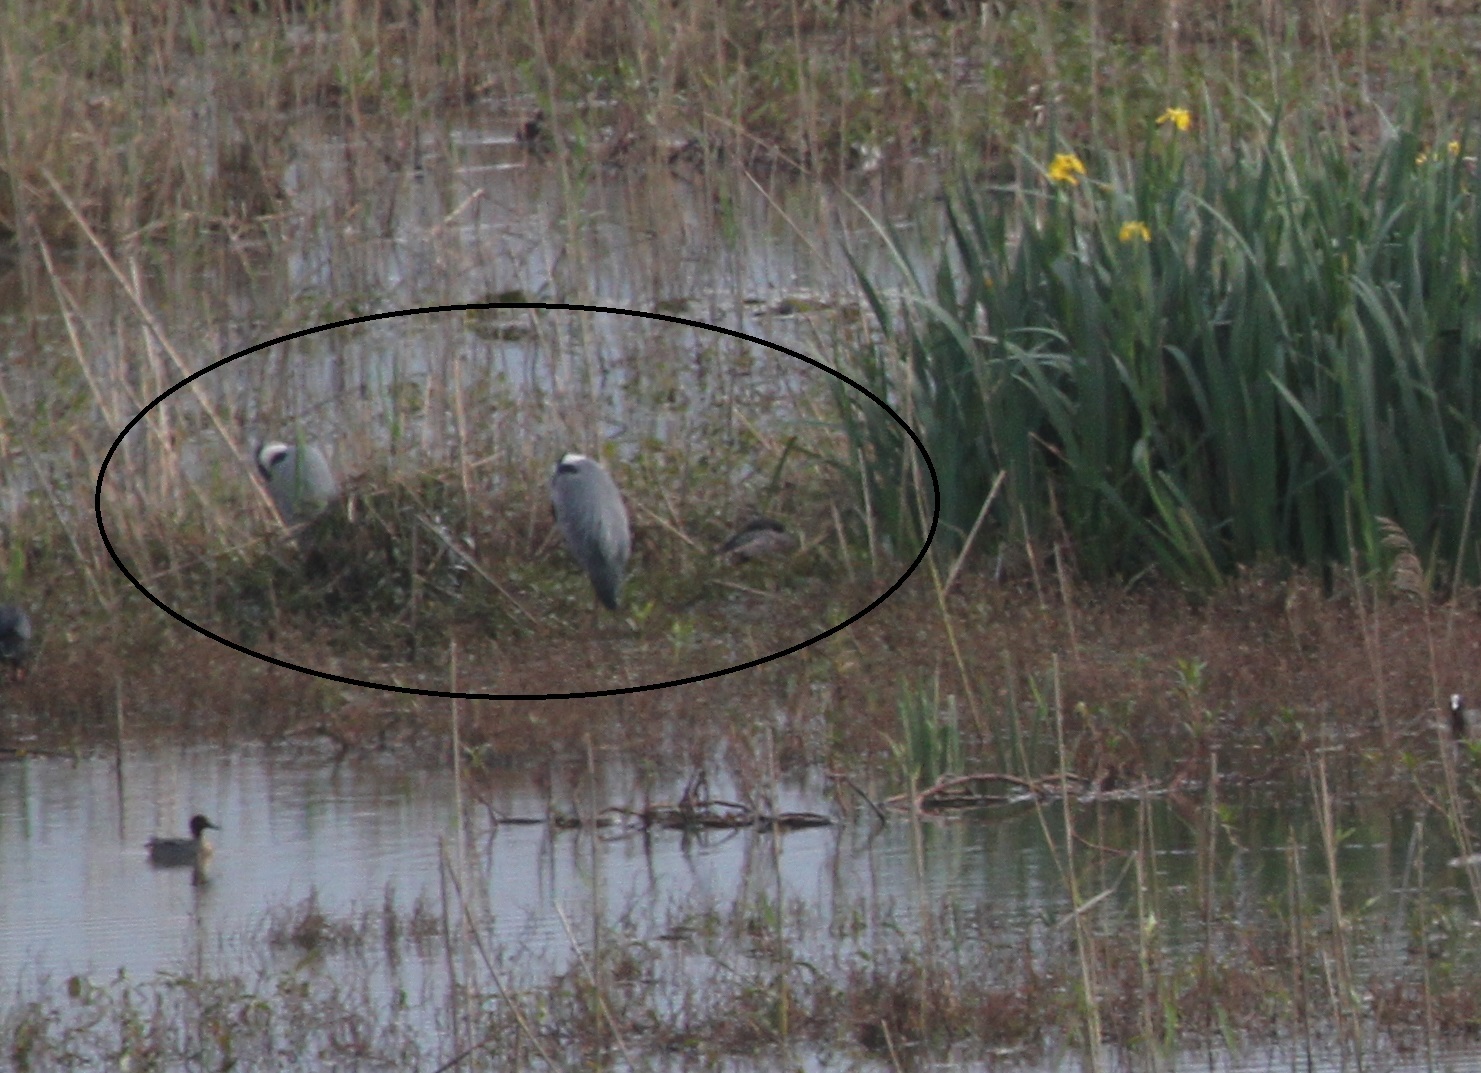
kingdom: Animalia
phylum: Chordata
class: Aves
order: Pelecaniformes
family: Ardeidae
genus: Ardea
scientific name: Ardea cinerea
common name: Grey heron
